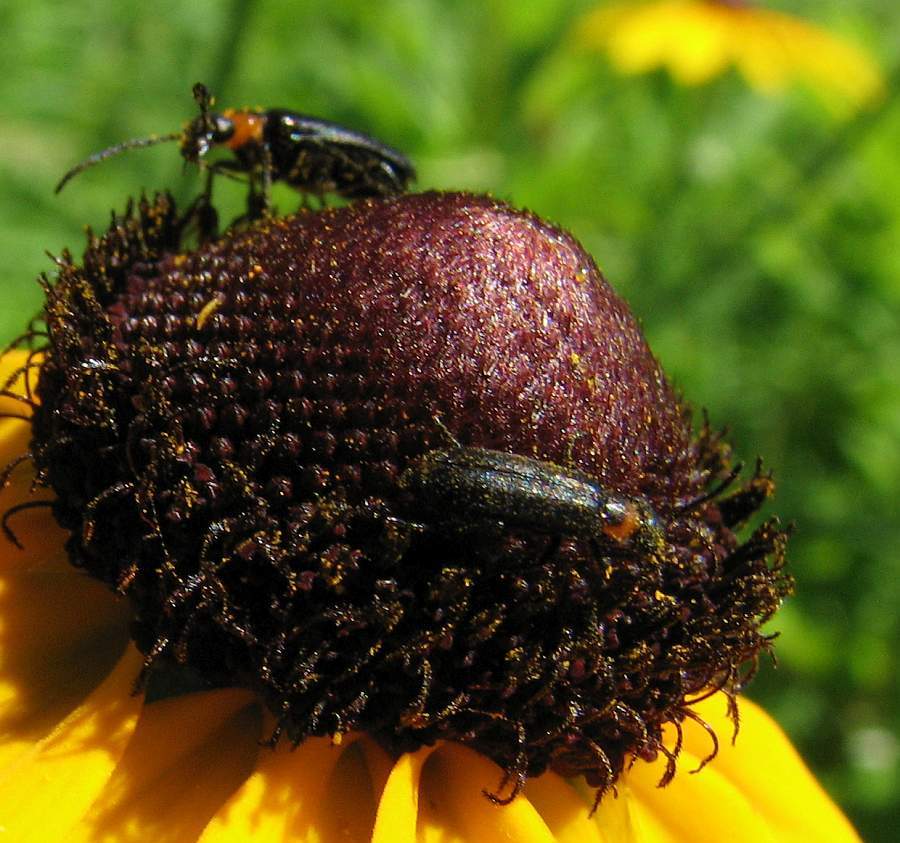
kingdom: Animalia
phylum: Arthropoda
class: Insecta
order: Coleoptera
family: Meloidae
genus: Nemognatha
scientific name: Nemognatha nemorensis
